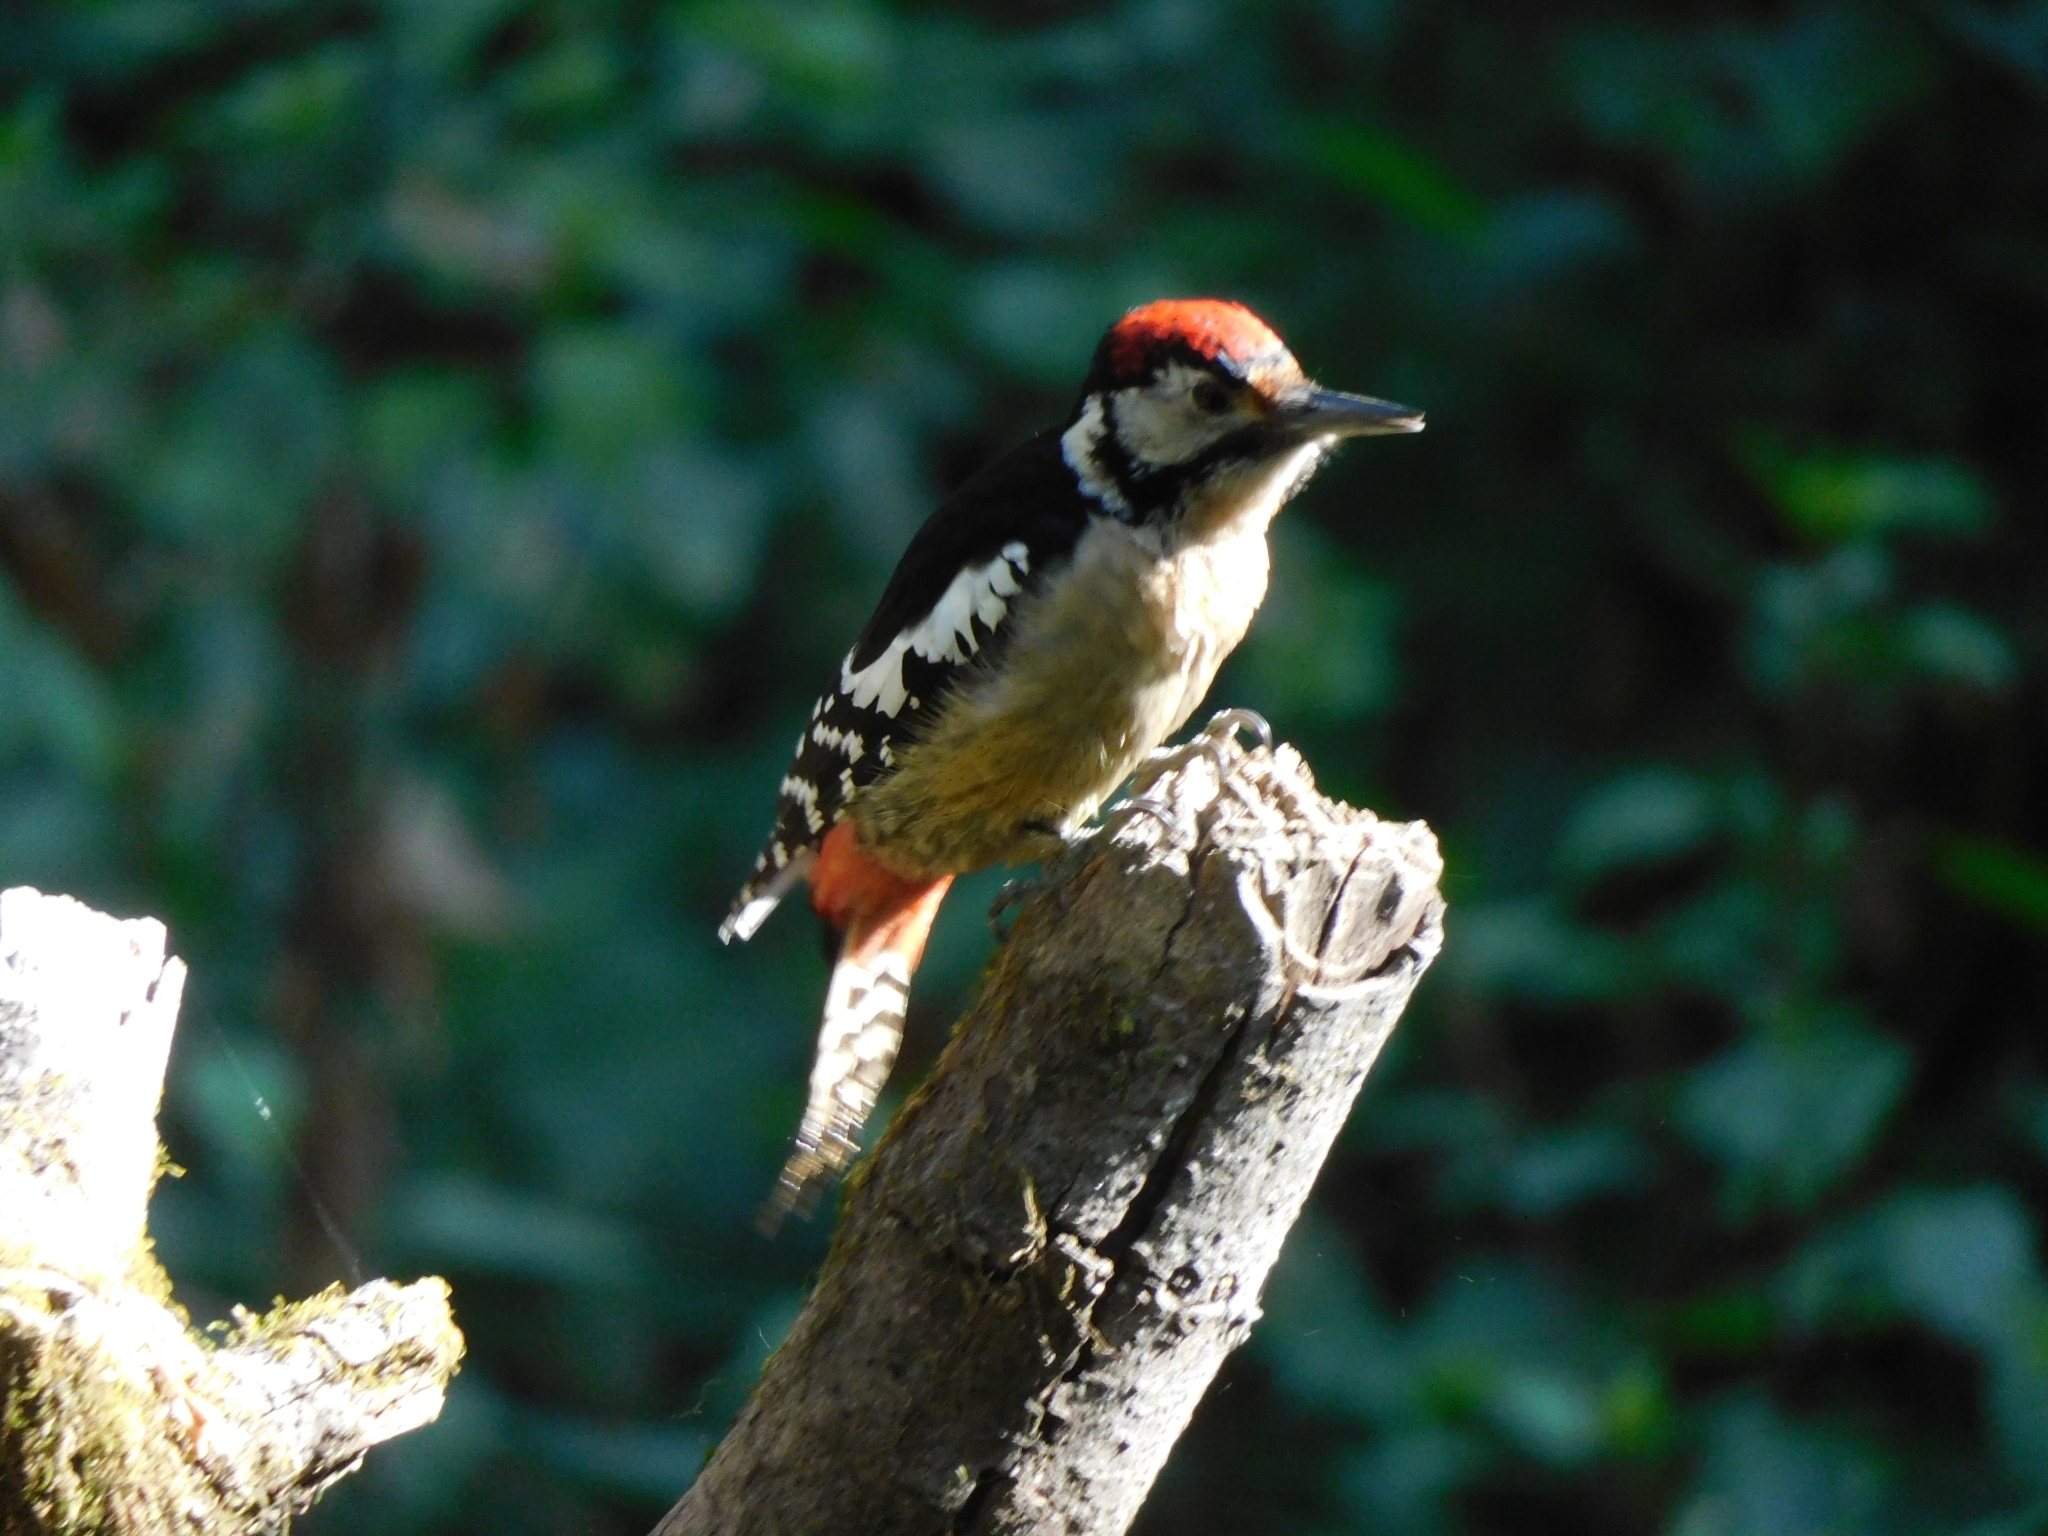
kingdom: Animalia
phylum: Chordata
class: Aves
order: Piciformes
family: Picidae
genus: Dendrocopos
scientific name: Dendrocopos himalayensis
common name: Himalayan woodpecker
